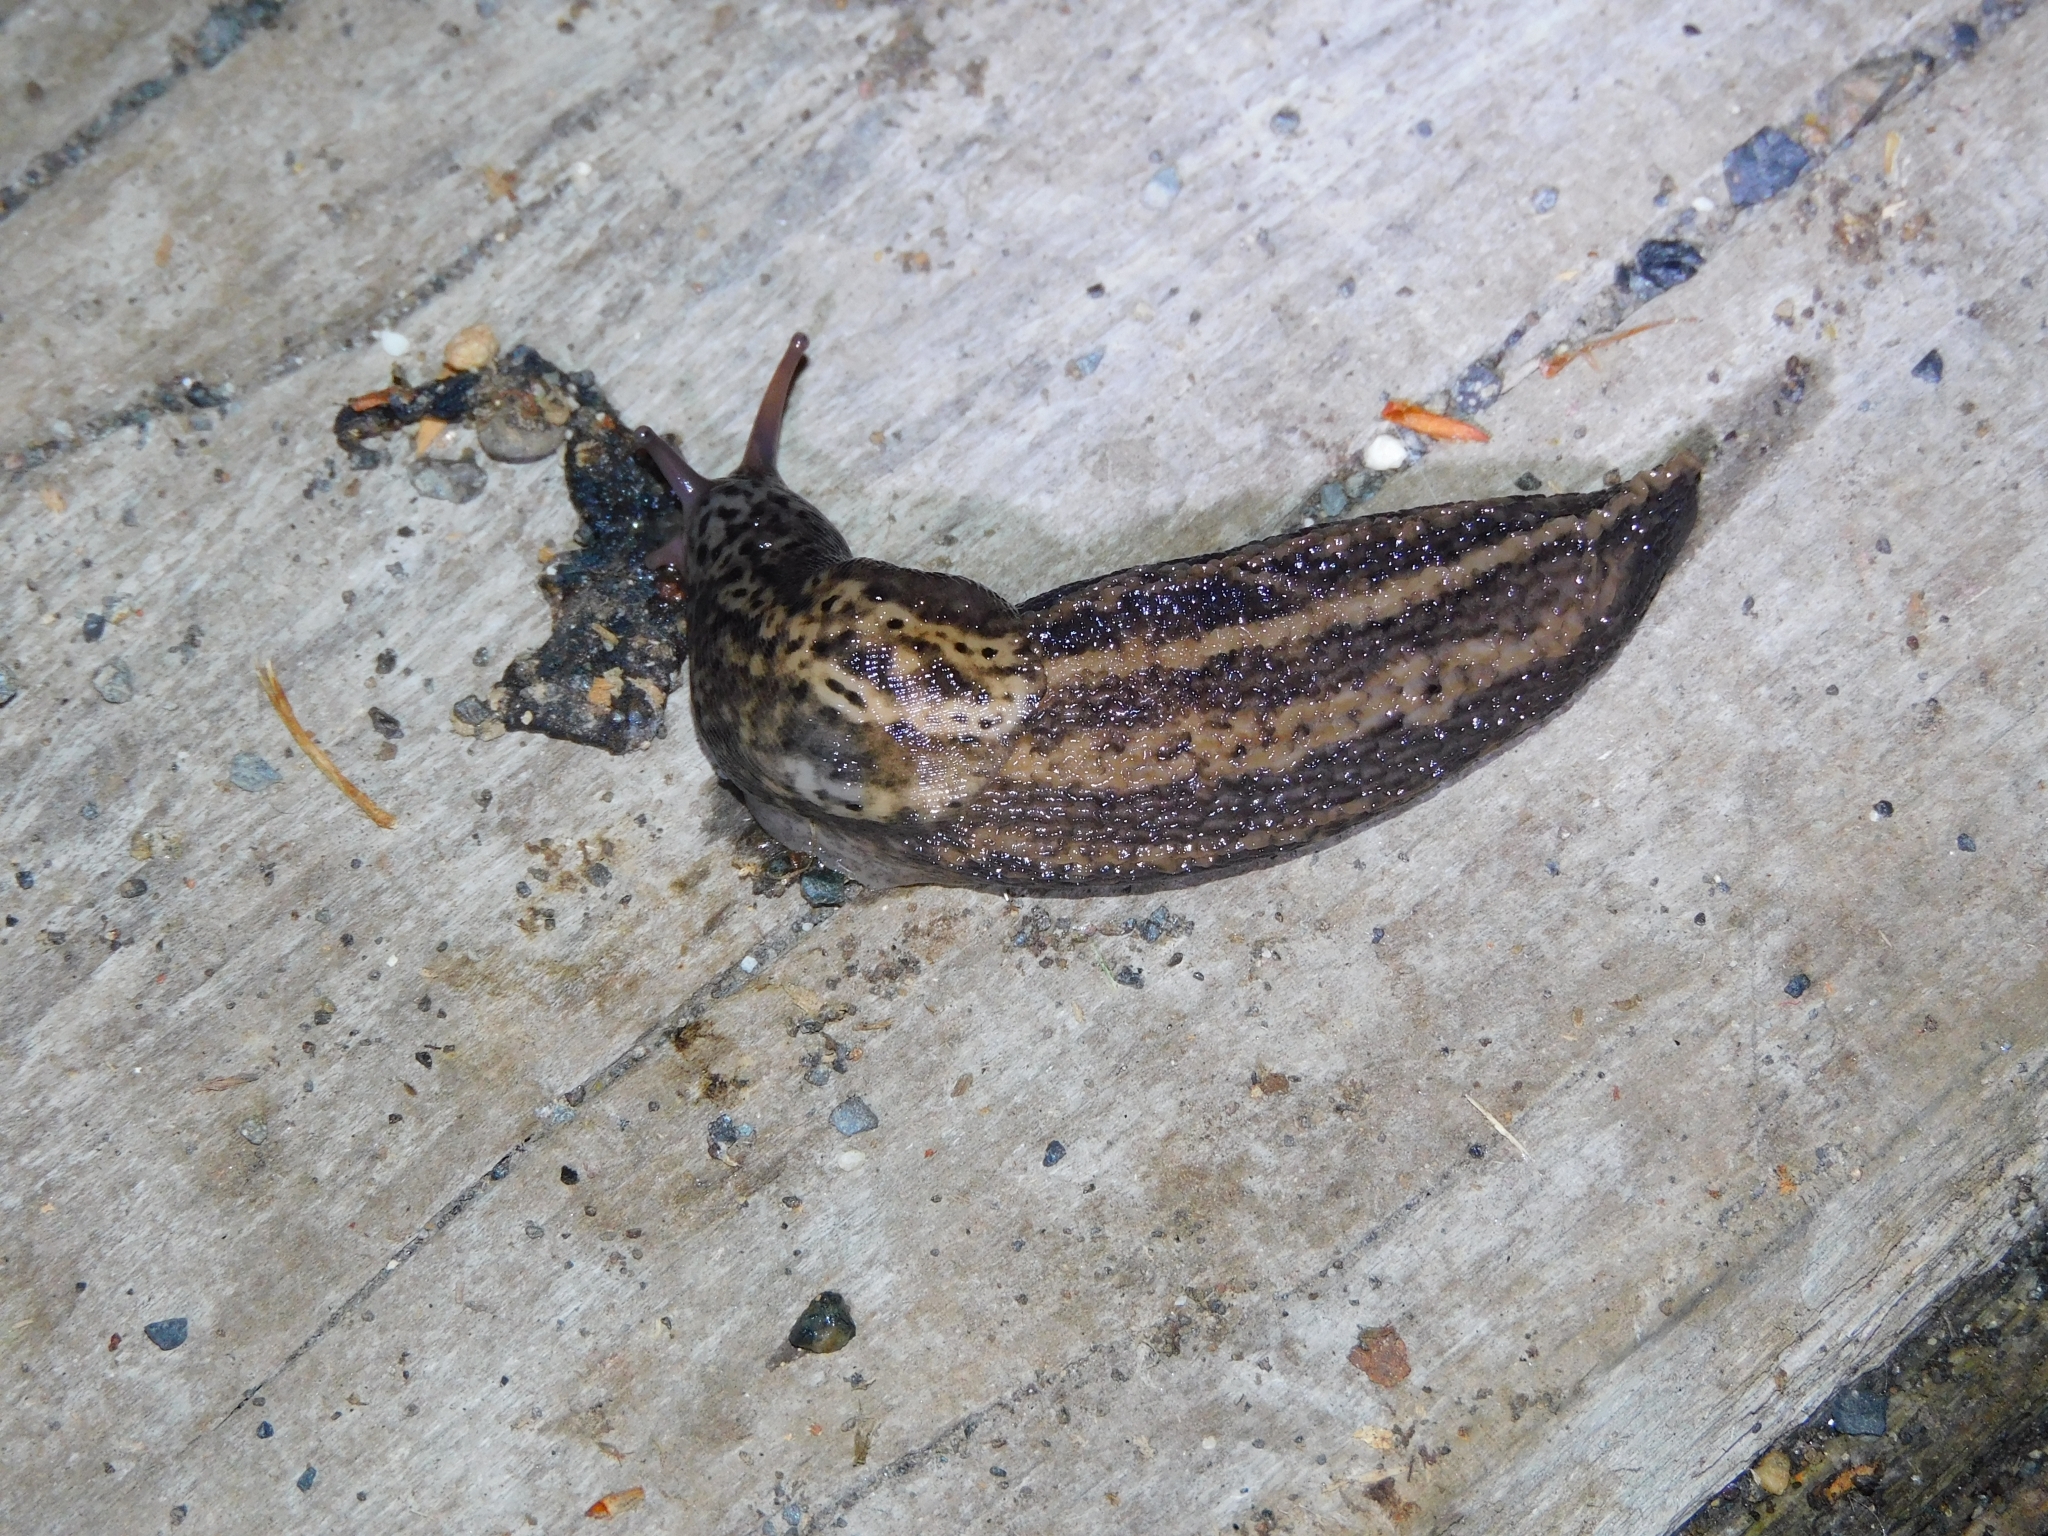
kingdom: Animalia
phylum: Mollusca
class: Gastropoda
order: Stylommatophora
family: Limacidae
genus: Limax
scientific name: Limax maximus
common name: Great grey slug
